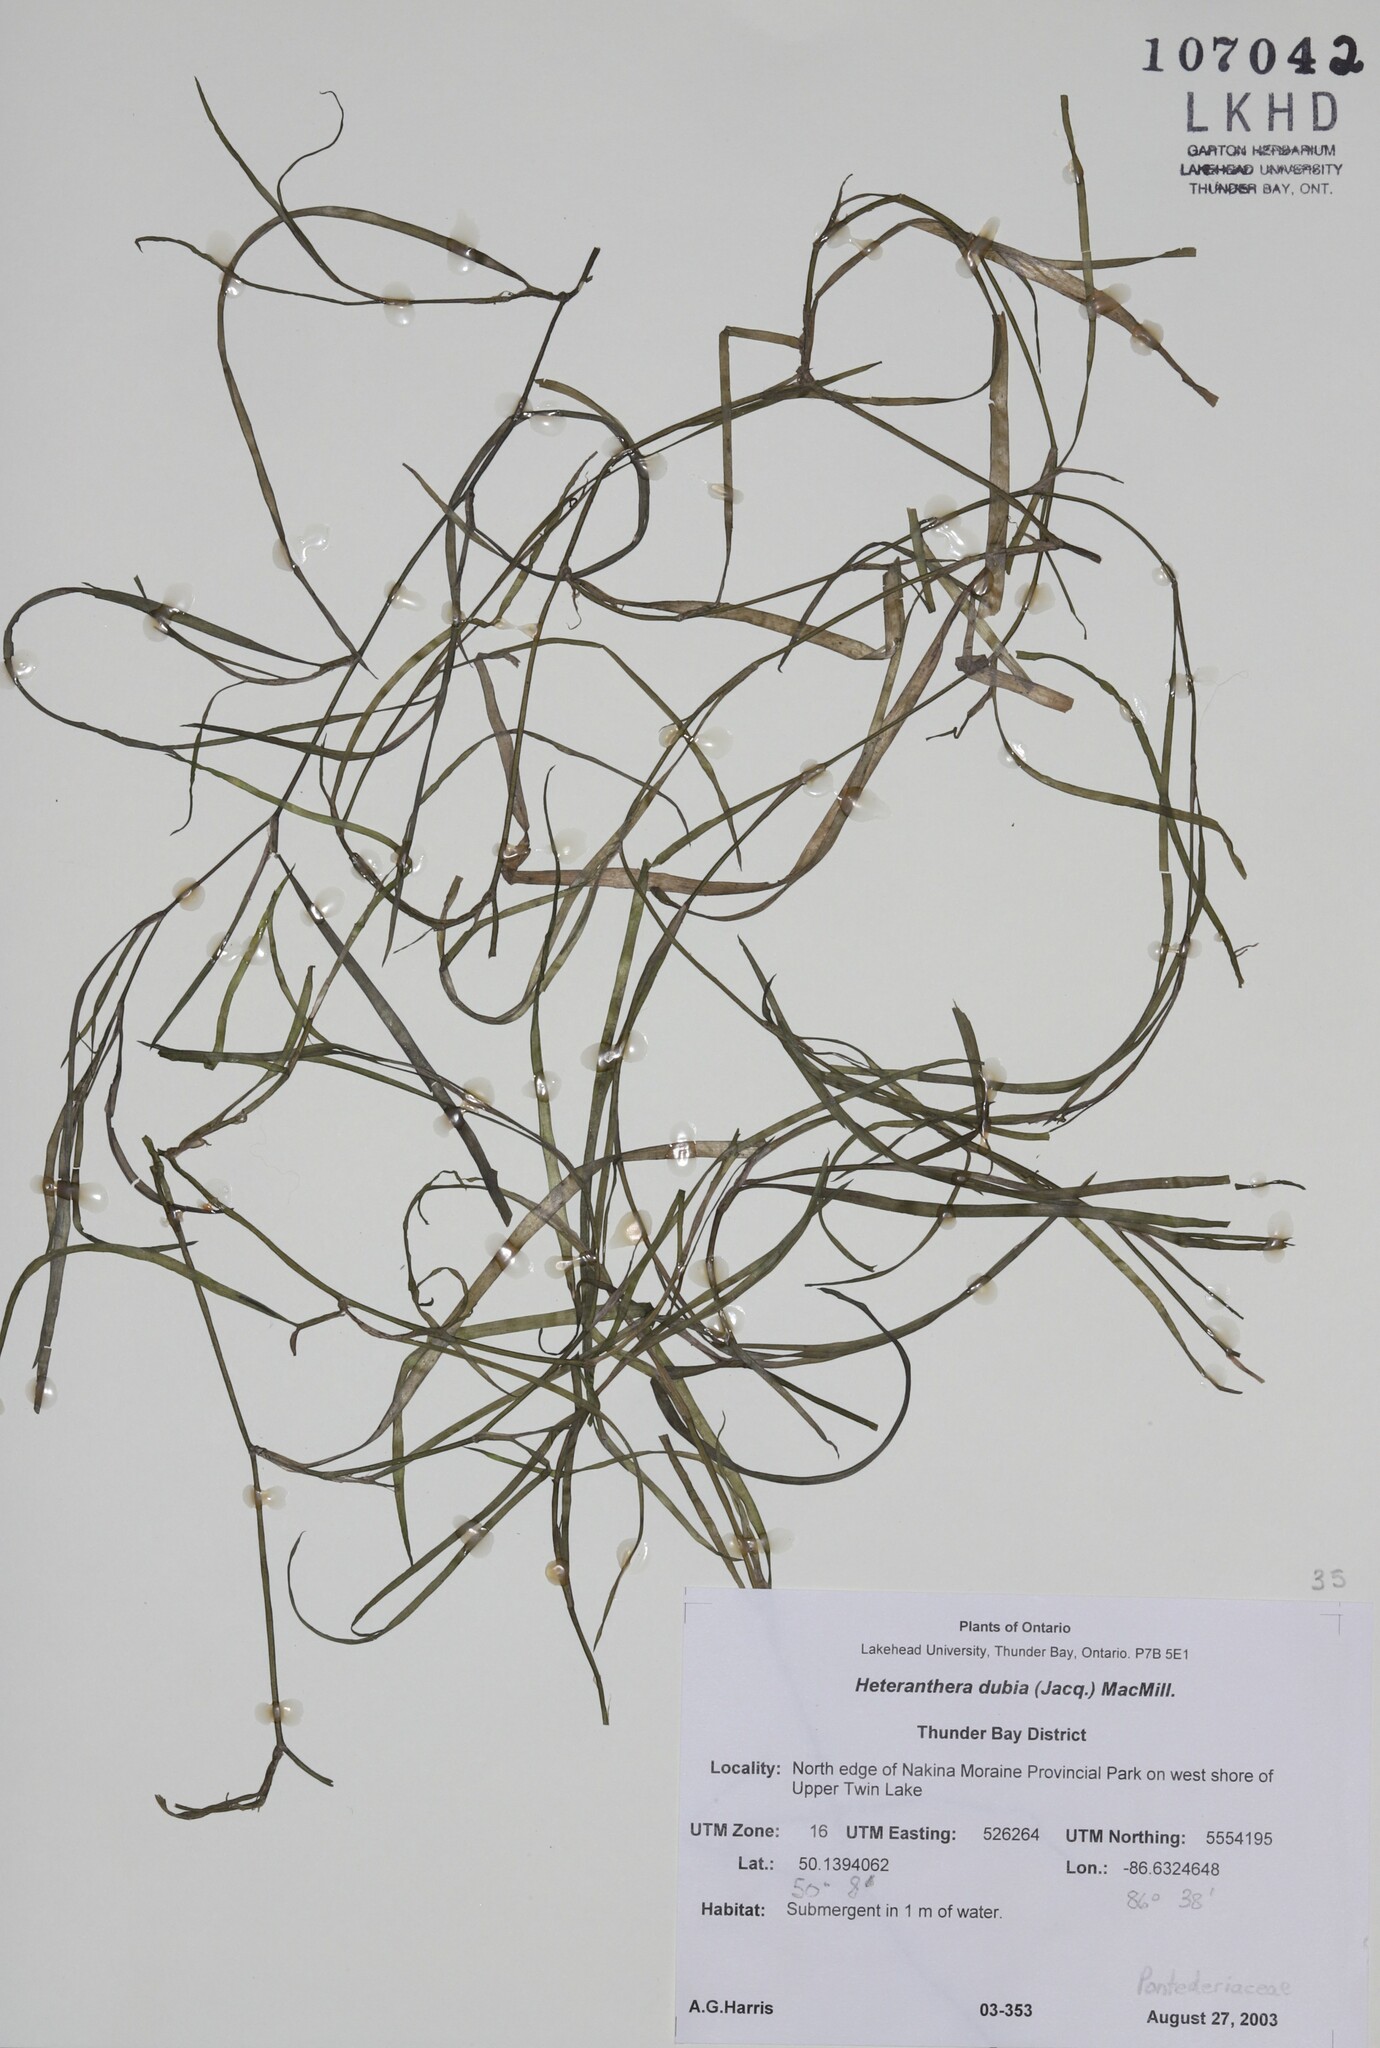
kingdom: Plantae
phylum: Tracheophyta
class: Liliopsida
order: Commelinales
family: Pontederiaceae
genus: Heteranthera
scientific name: Heteranthera dubia
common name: Grass-leaved mud plantain
